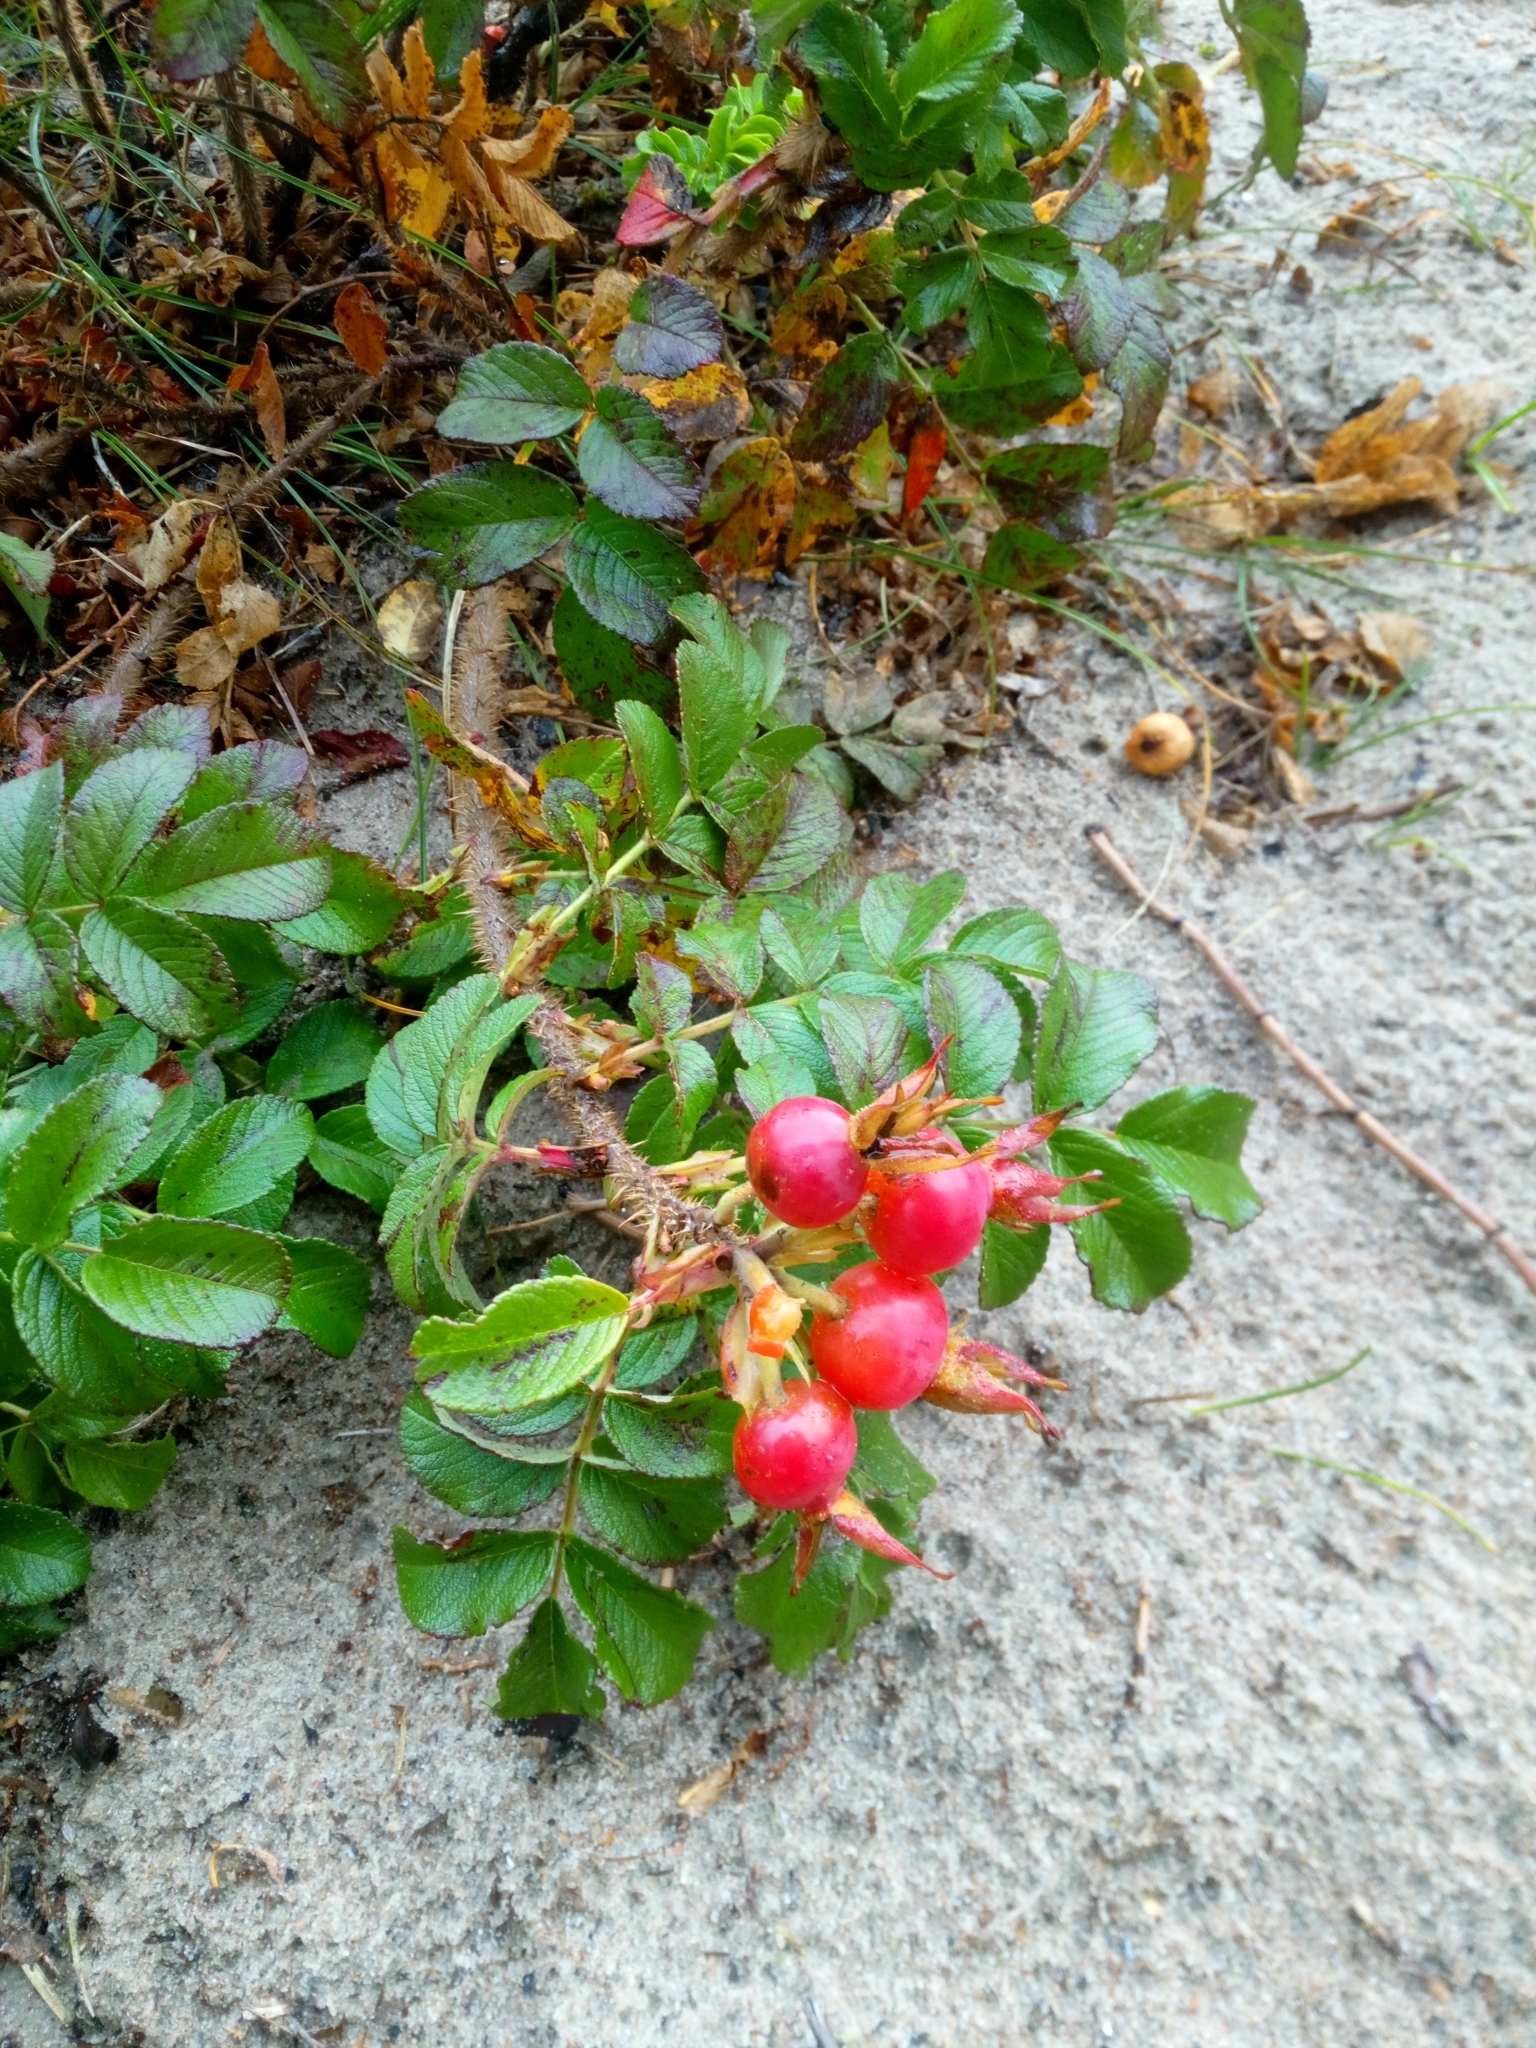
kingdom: Plantae
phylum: Tracheophyta
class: Magnoliopsida
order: Rosales
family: Rosaceae
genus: Rosa
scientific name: Rosa rugosa
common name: Japanese rose
